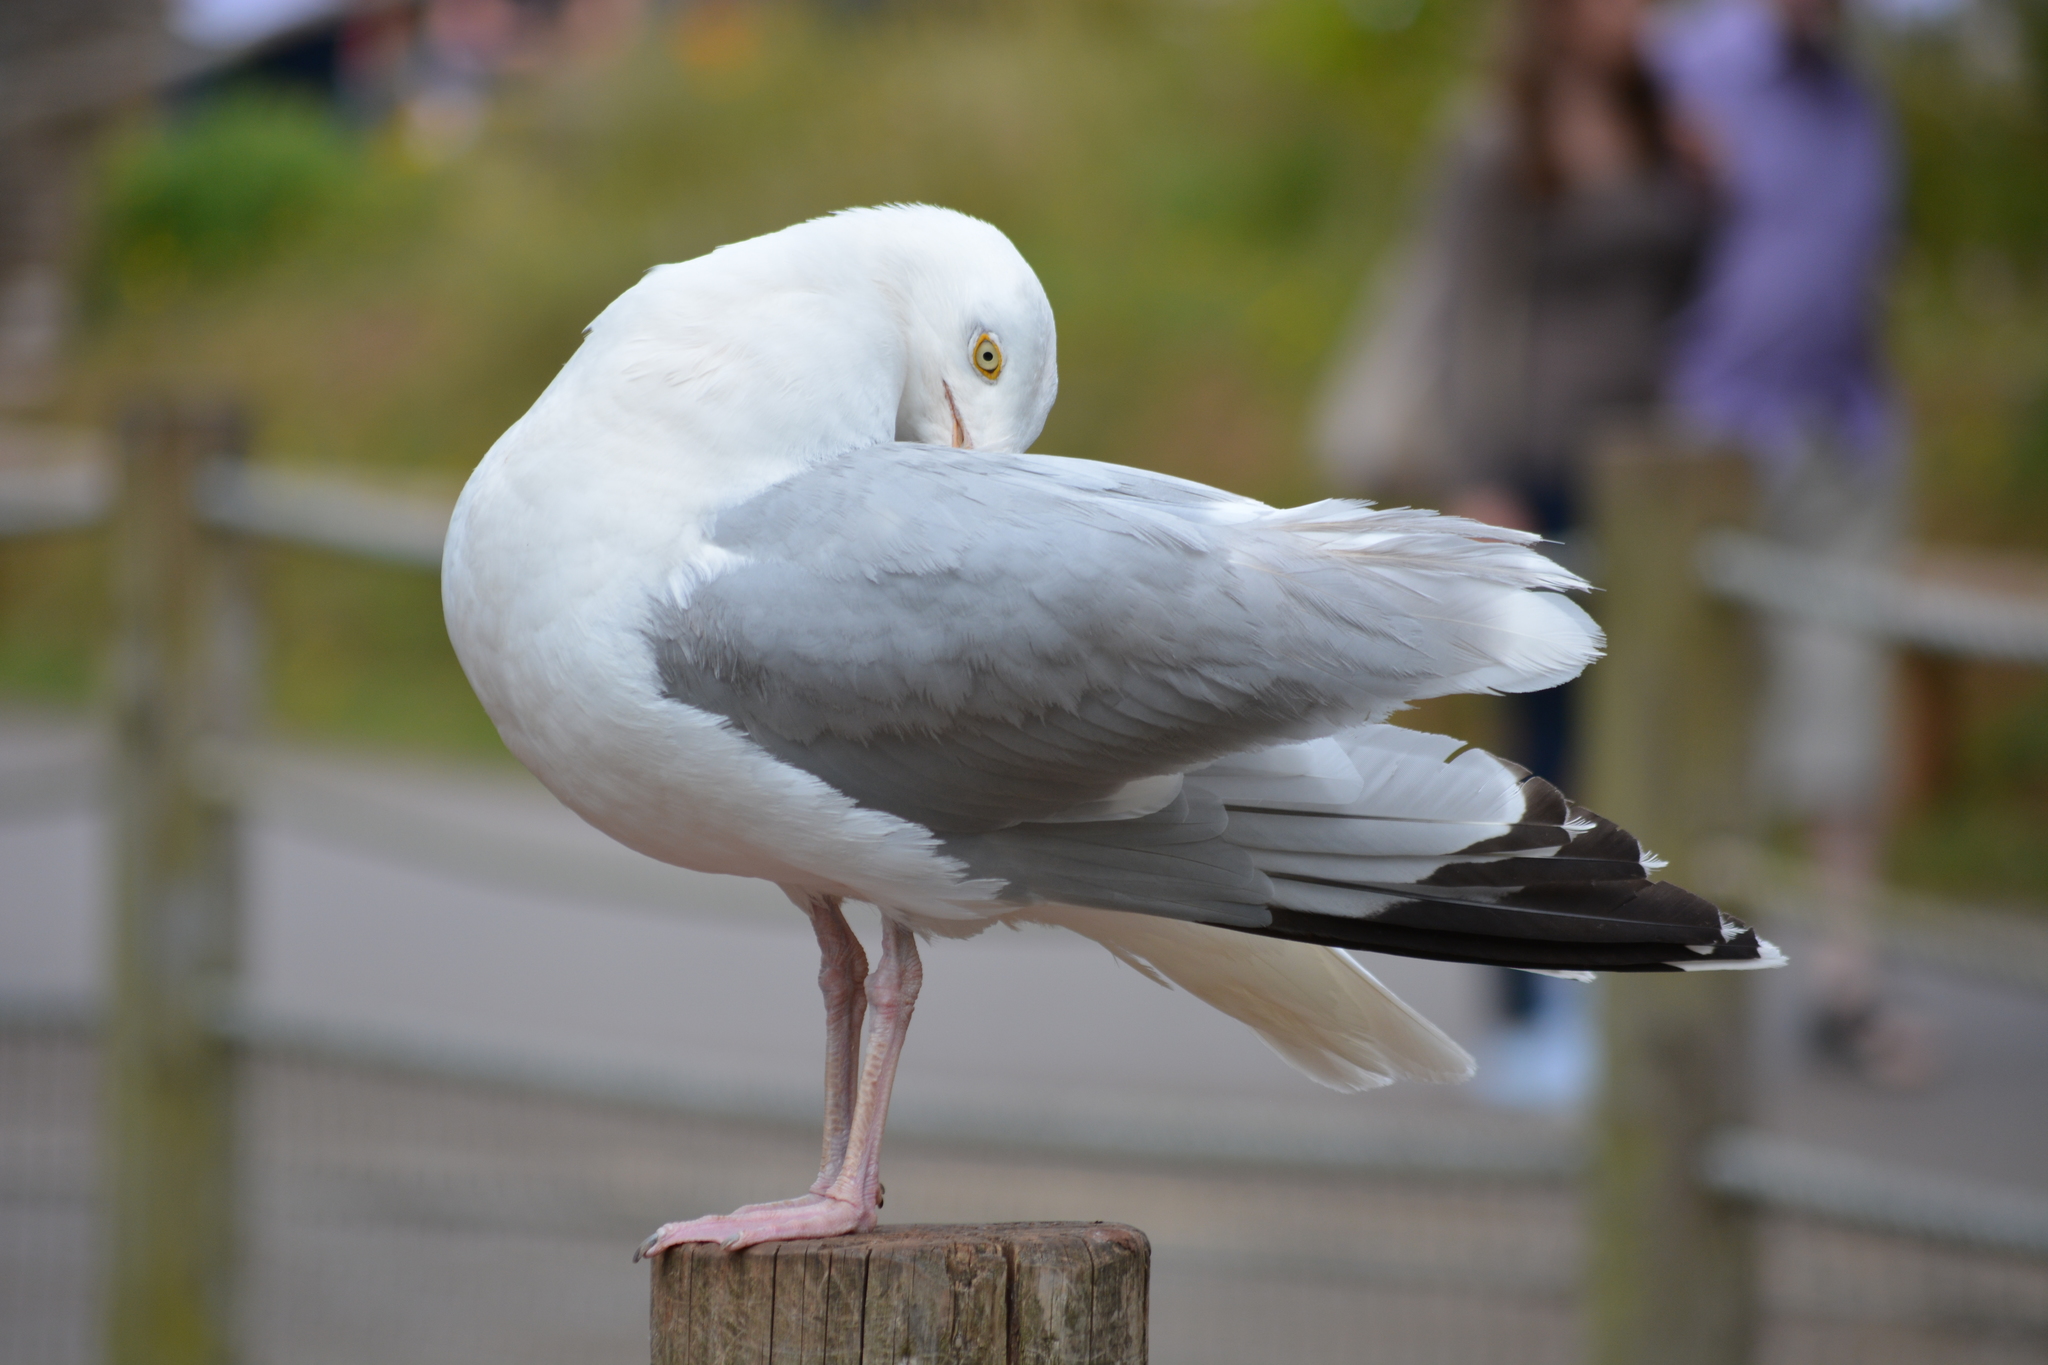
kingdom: Animalia
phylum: Chordata
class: Aves
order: Charadriiformes
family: Laridae
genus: Larus
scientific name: Larus argentatus
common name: Herring gull
